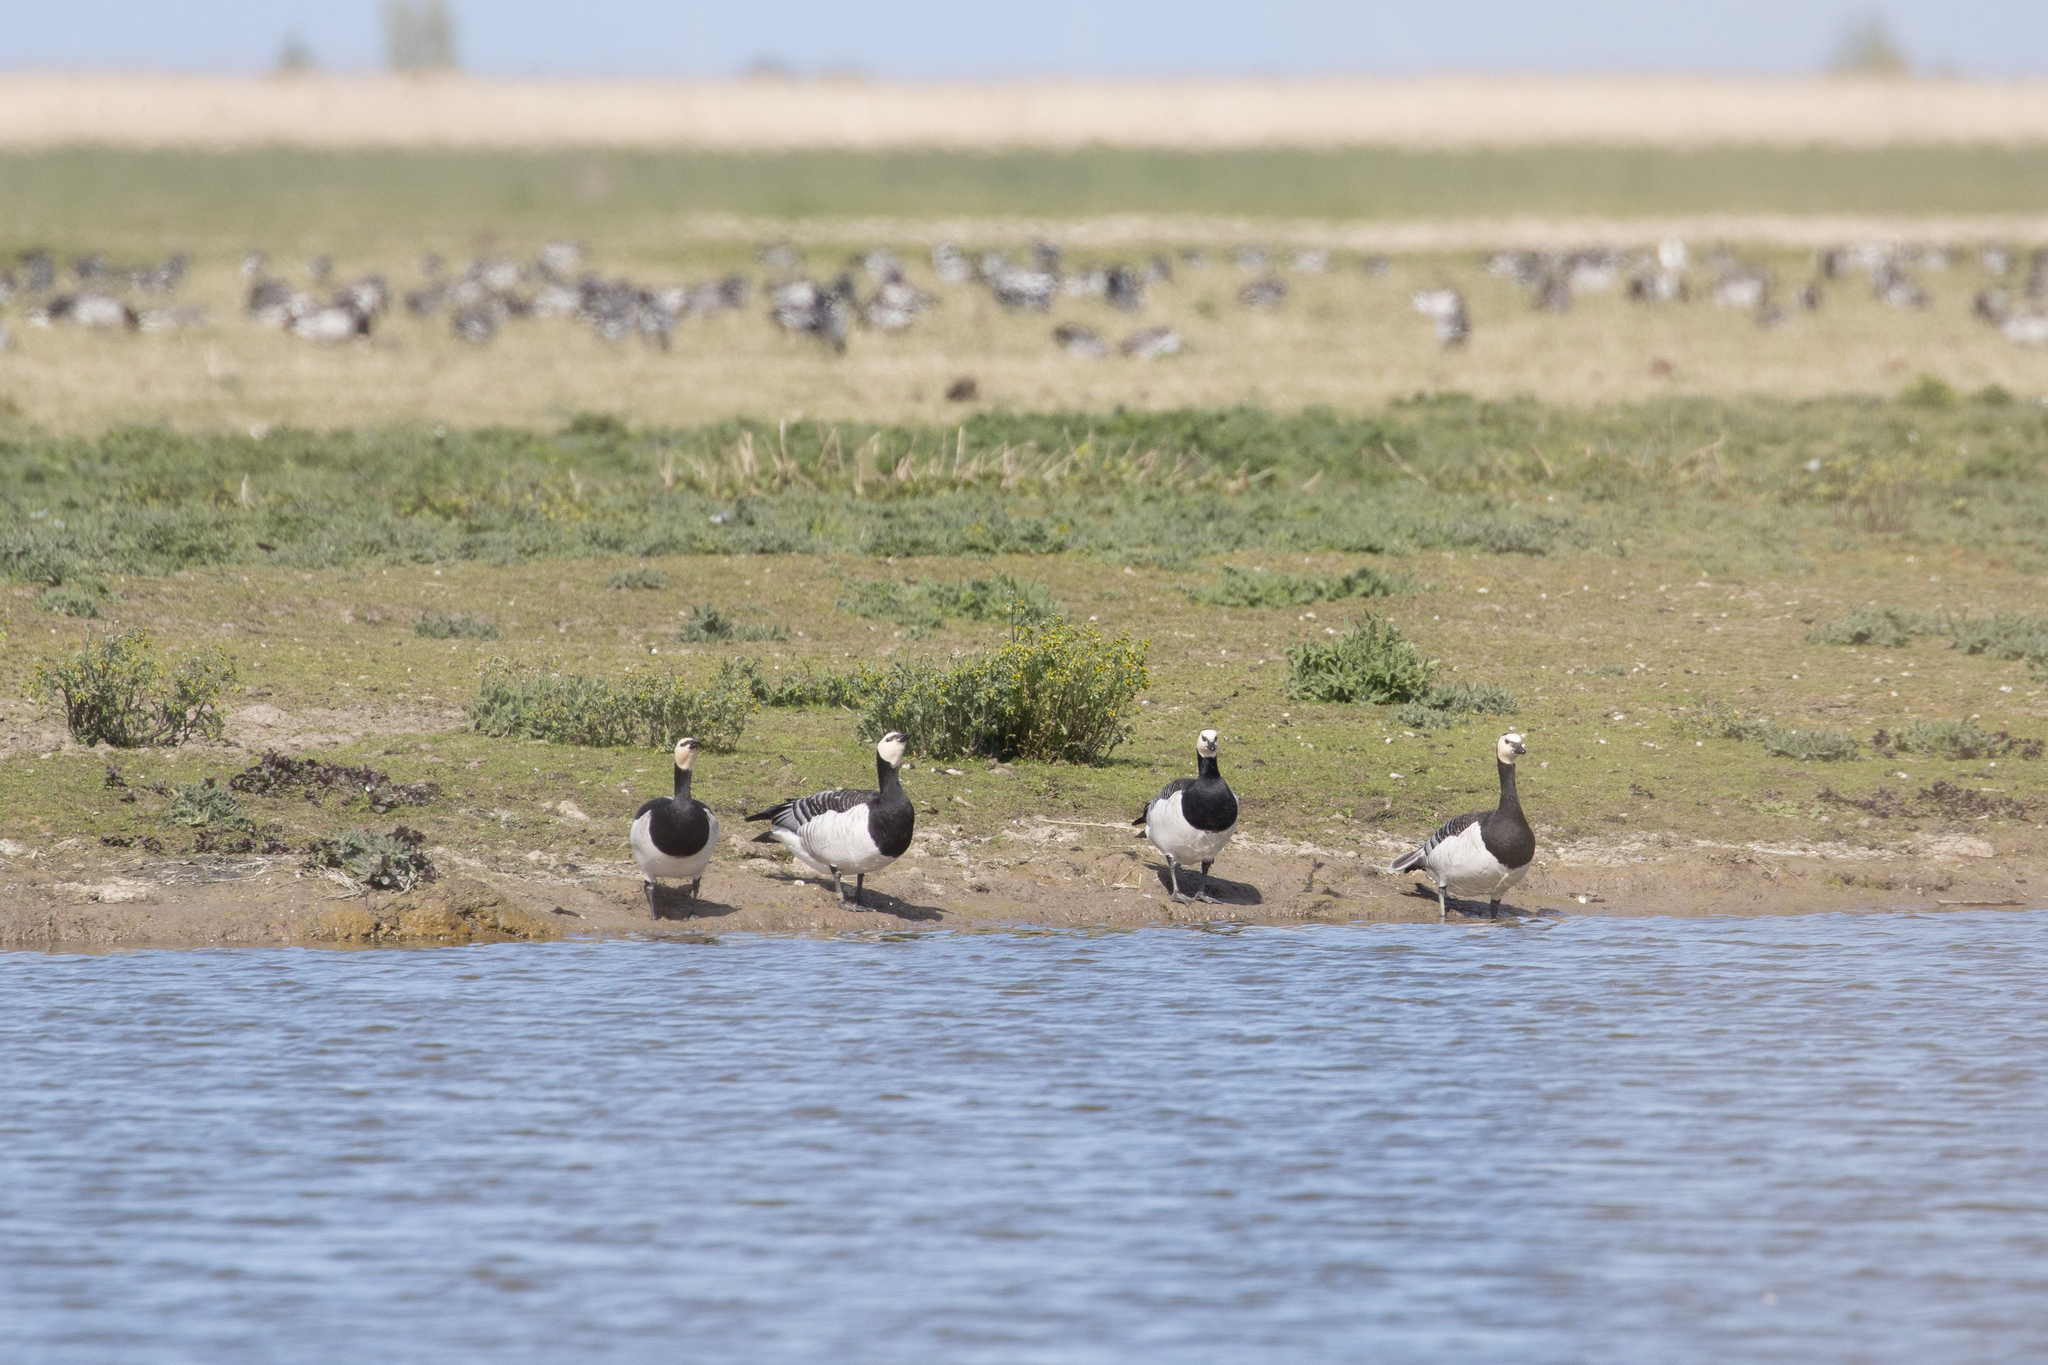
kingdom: Animalia
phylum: Chordata
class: Aves
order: Anseriformes
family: Anatidae
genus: Branta
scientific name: Branta leucopsis
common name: Barnacle goose
